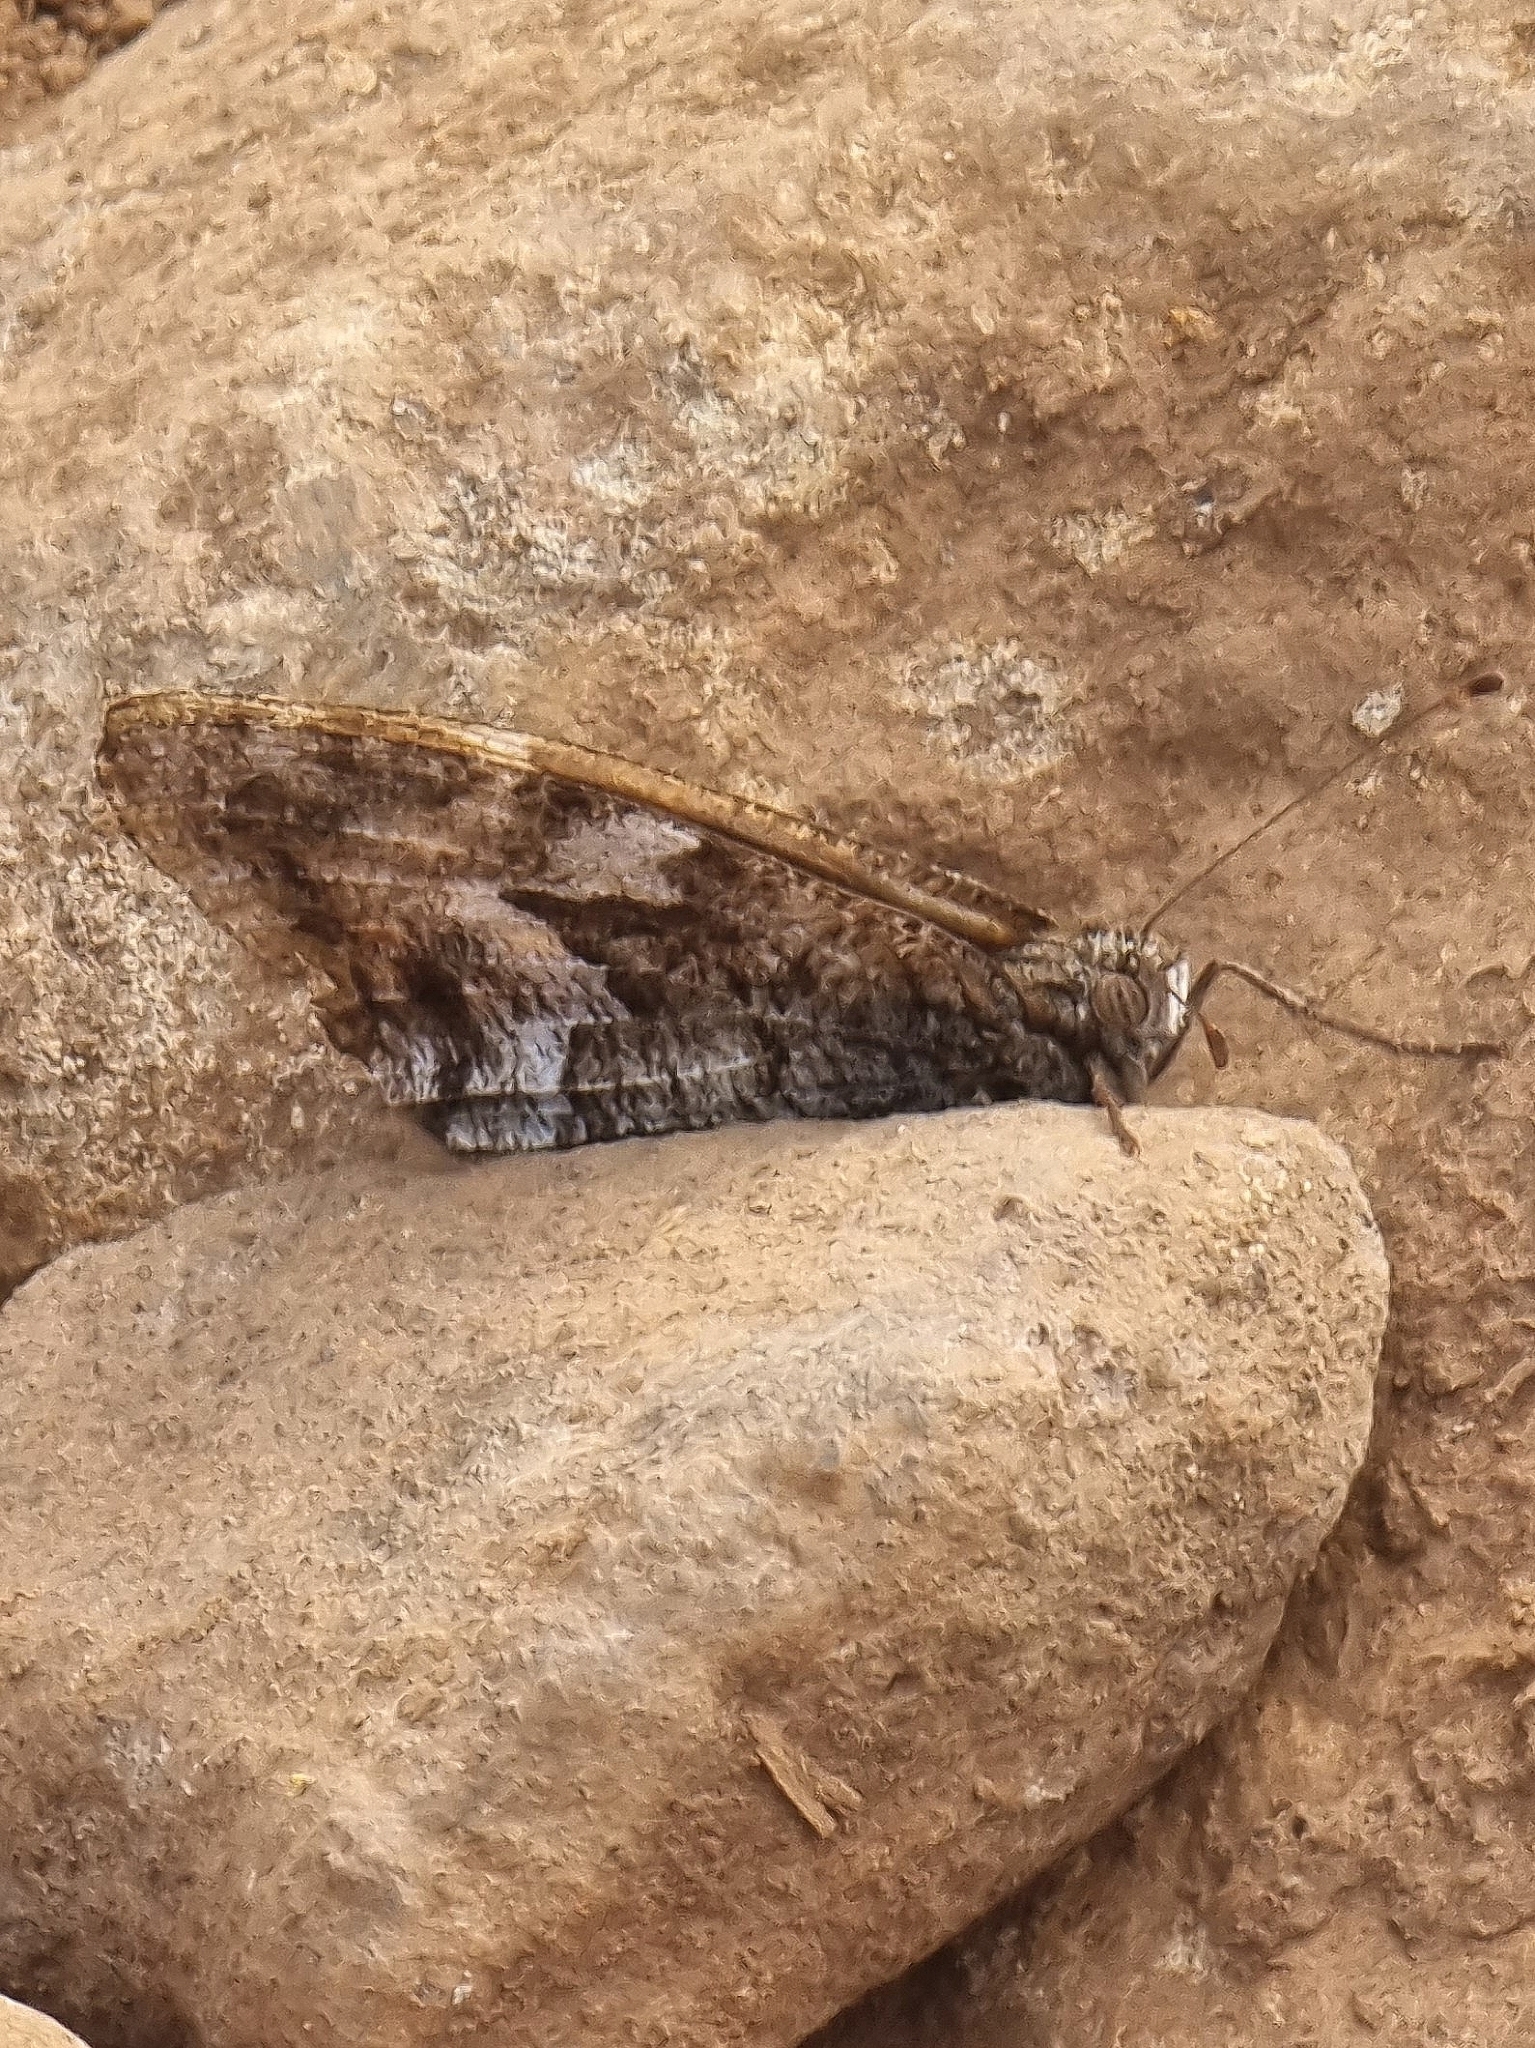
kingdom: Animalia
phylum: Arthropoda
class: Insecta
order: Lepidoptera
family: Nymphalidae
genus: Hipparchia
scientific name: Hipparchia algirica
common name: Mountain grayling
